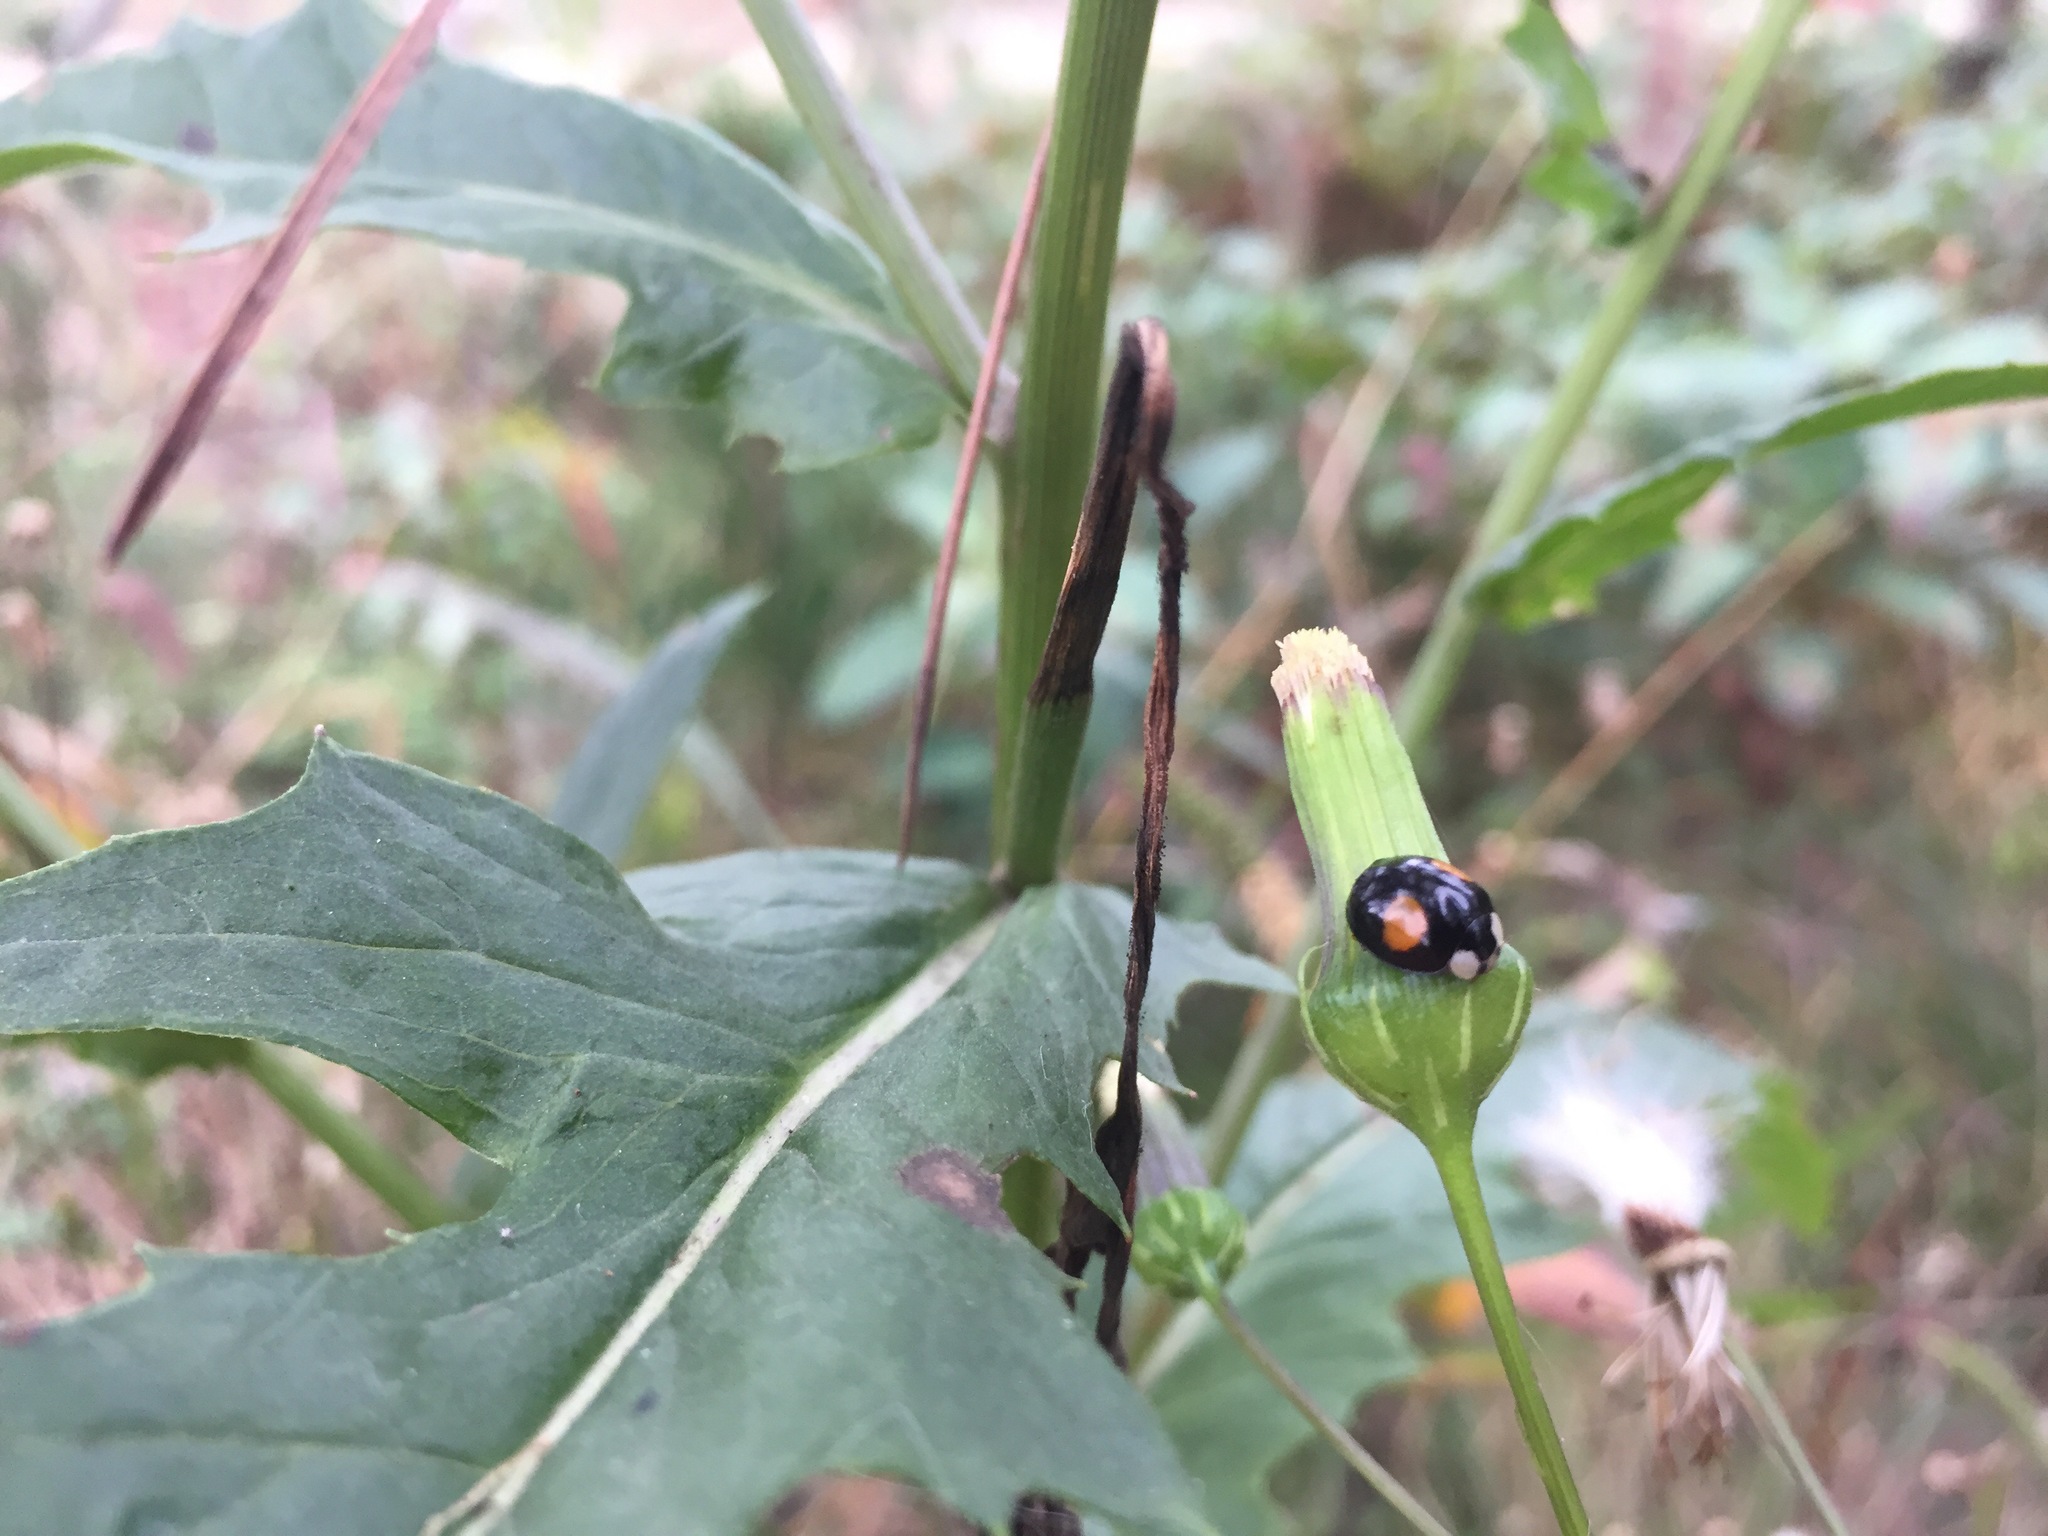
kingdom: Animalia
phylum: Arthropoda
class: Insecta
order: Coleoptera
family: Coccinellidae
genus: Harmonia
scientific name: Harmonia axyridis
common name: Harlequin ladybird
